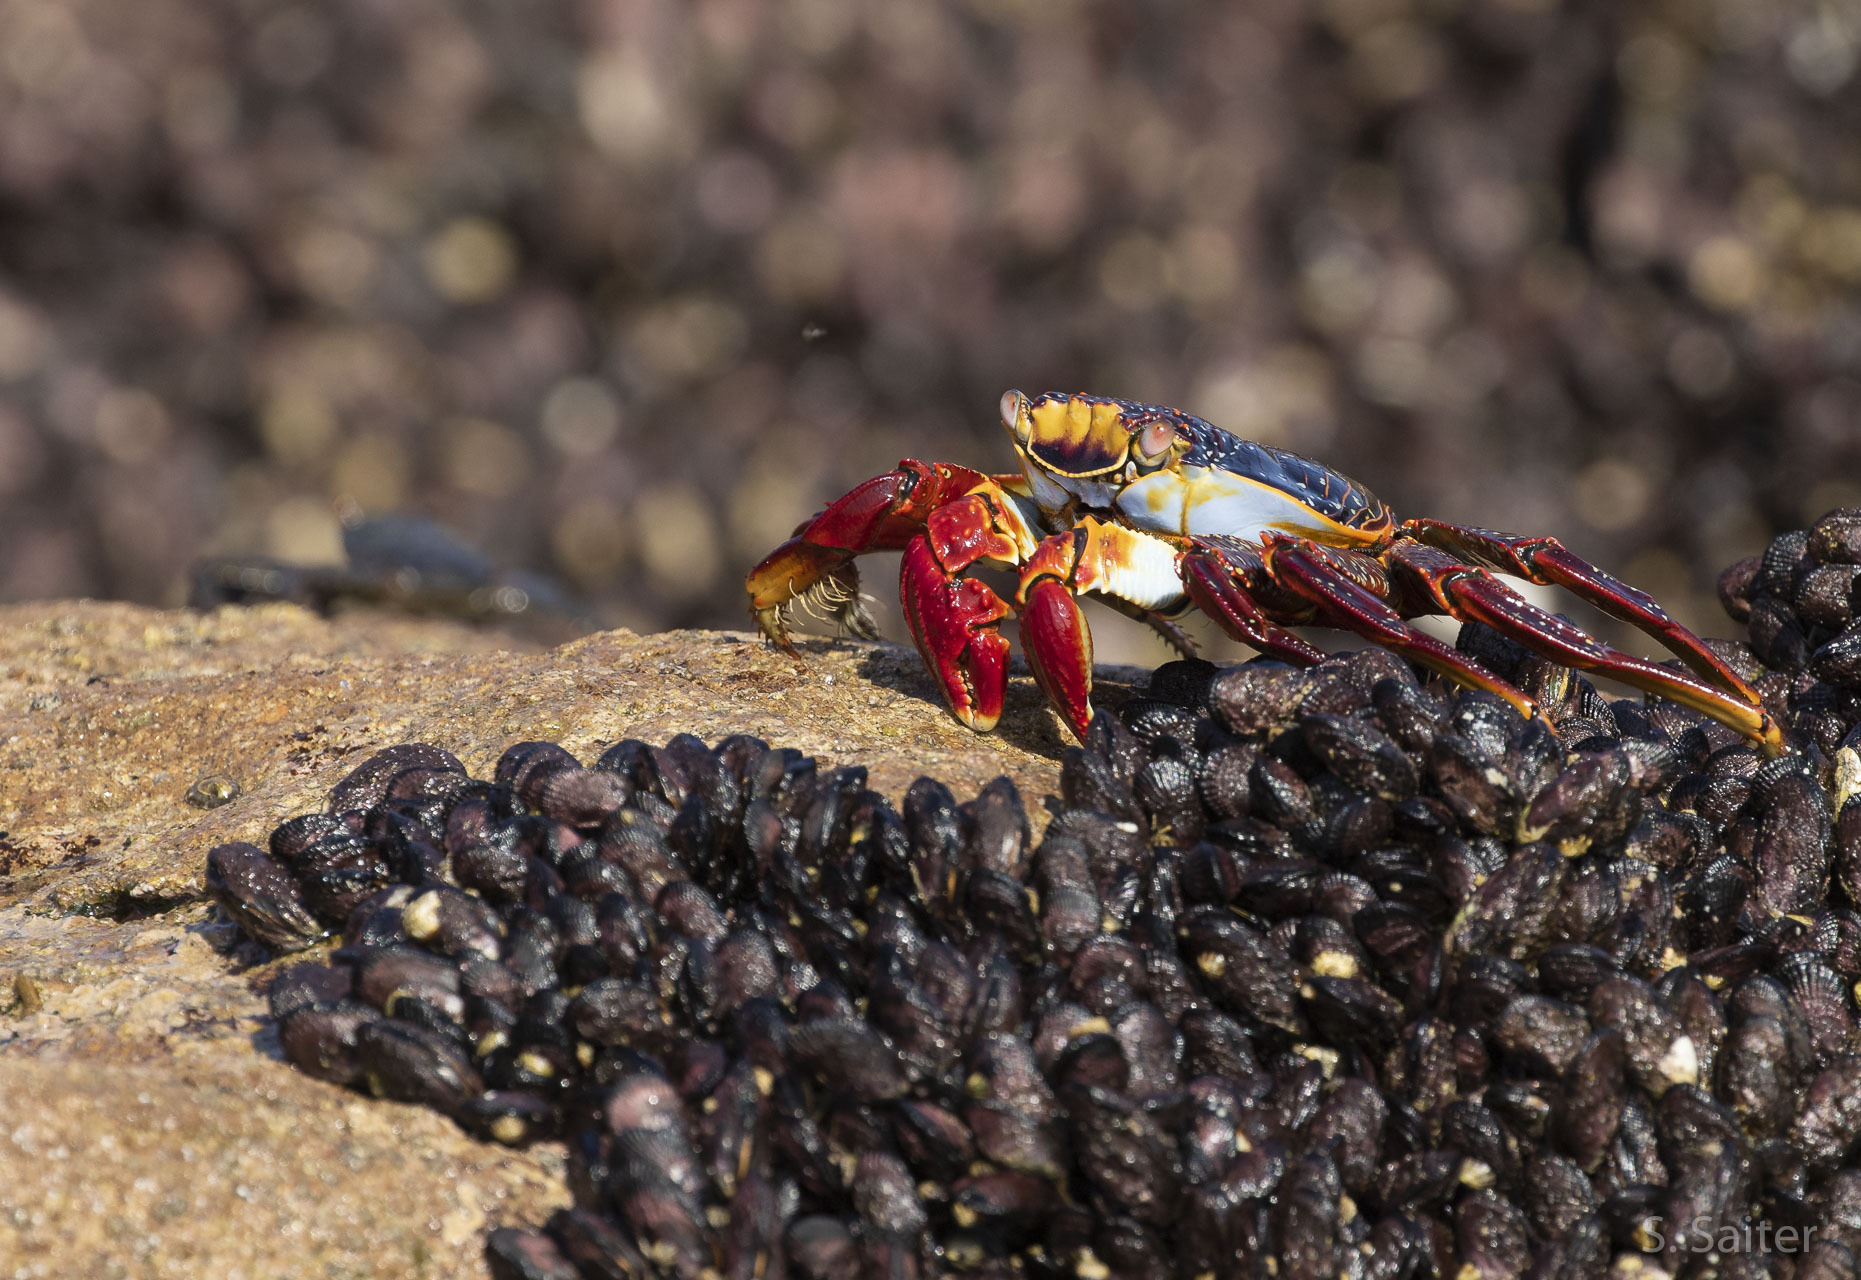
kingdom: Animalia
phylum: Arthropoda
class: Malacostraca
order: Decapoda
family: Grapsidae
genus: Grapsus
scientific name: Grapsus grapsus
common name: Sally lightfoot
